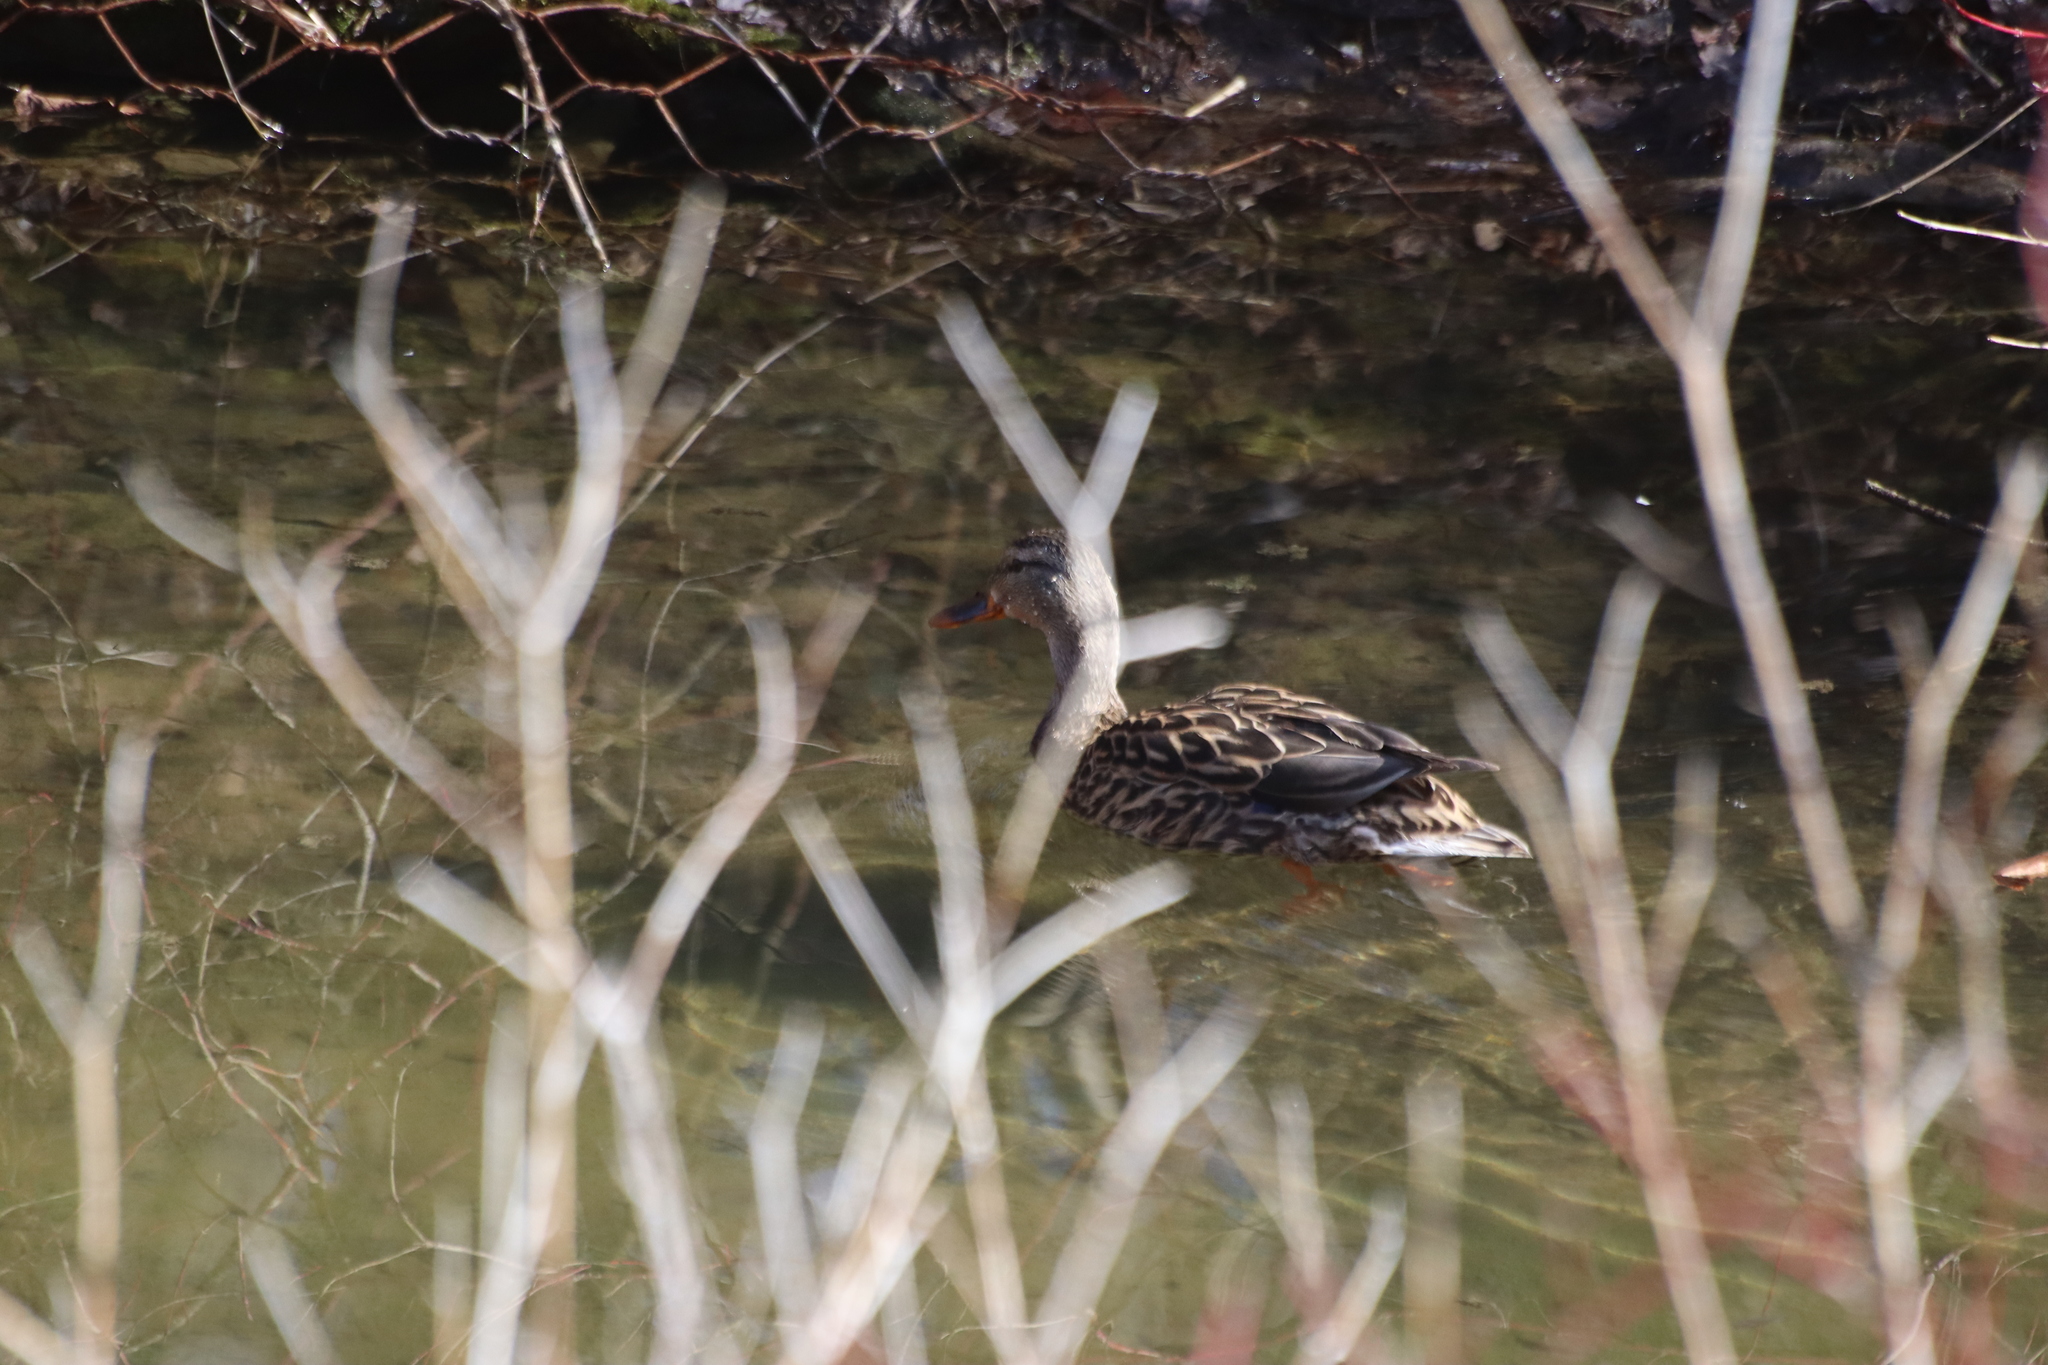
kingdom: Animalia
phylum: Chordata
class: Aves
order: Anseriformes
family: Anatidae
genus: Anas
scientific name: Anas platyrhynchos
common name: Mallard
